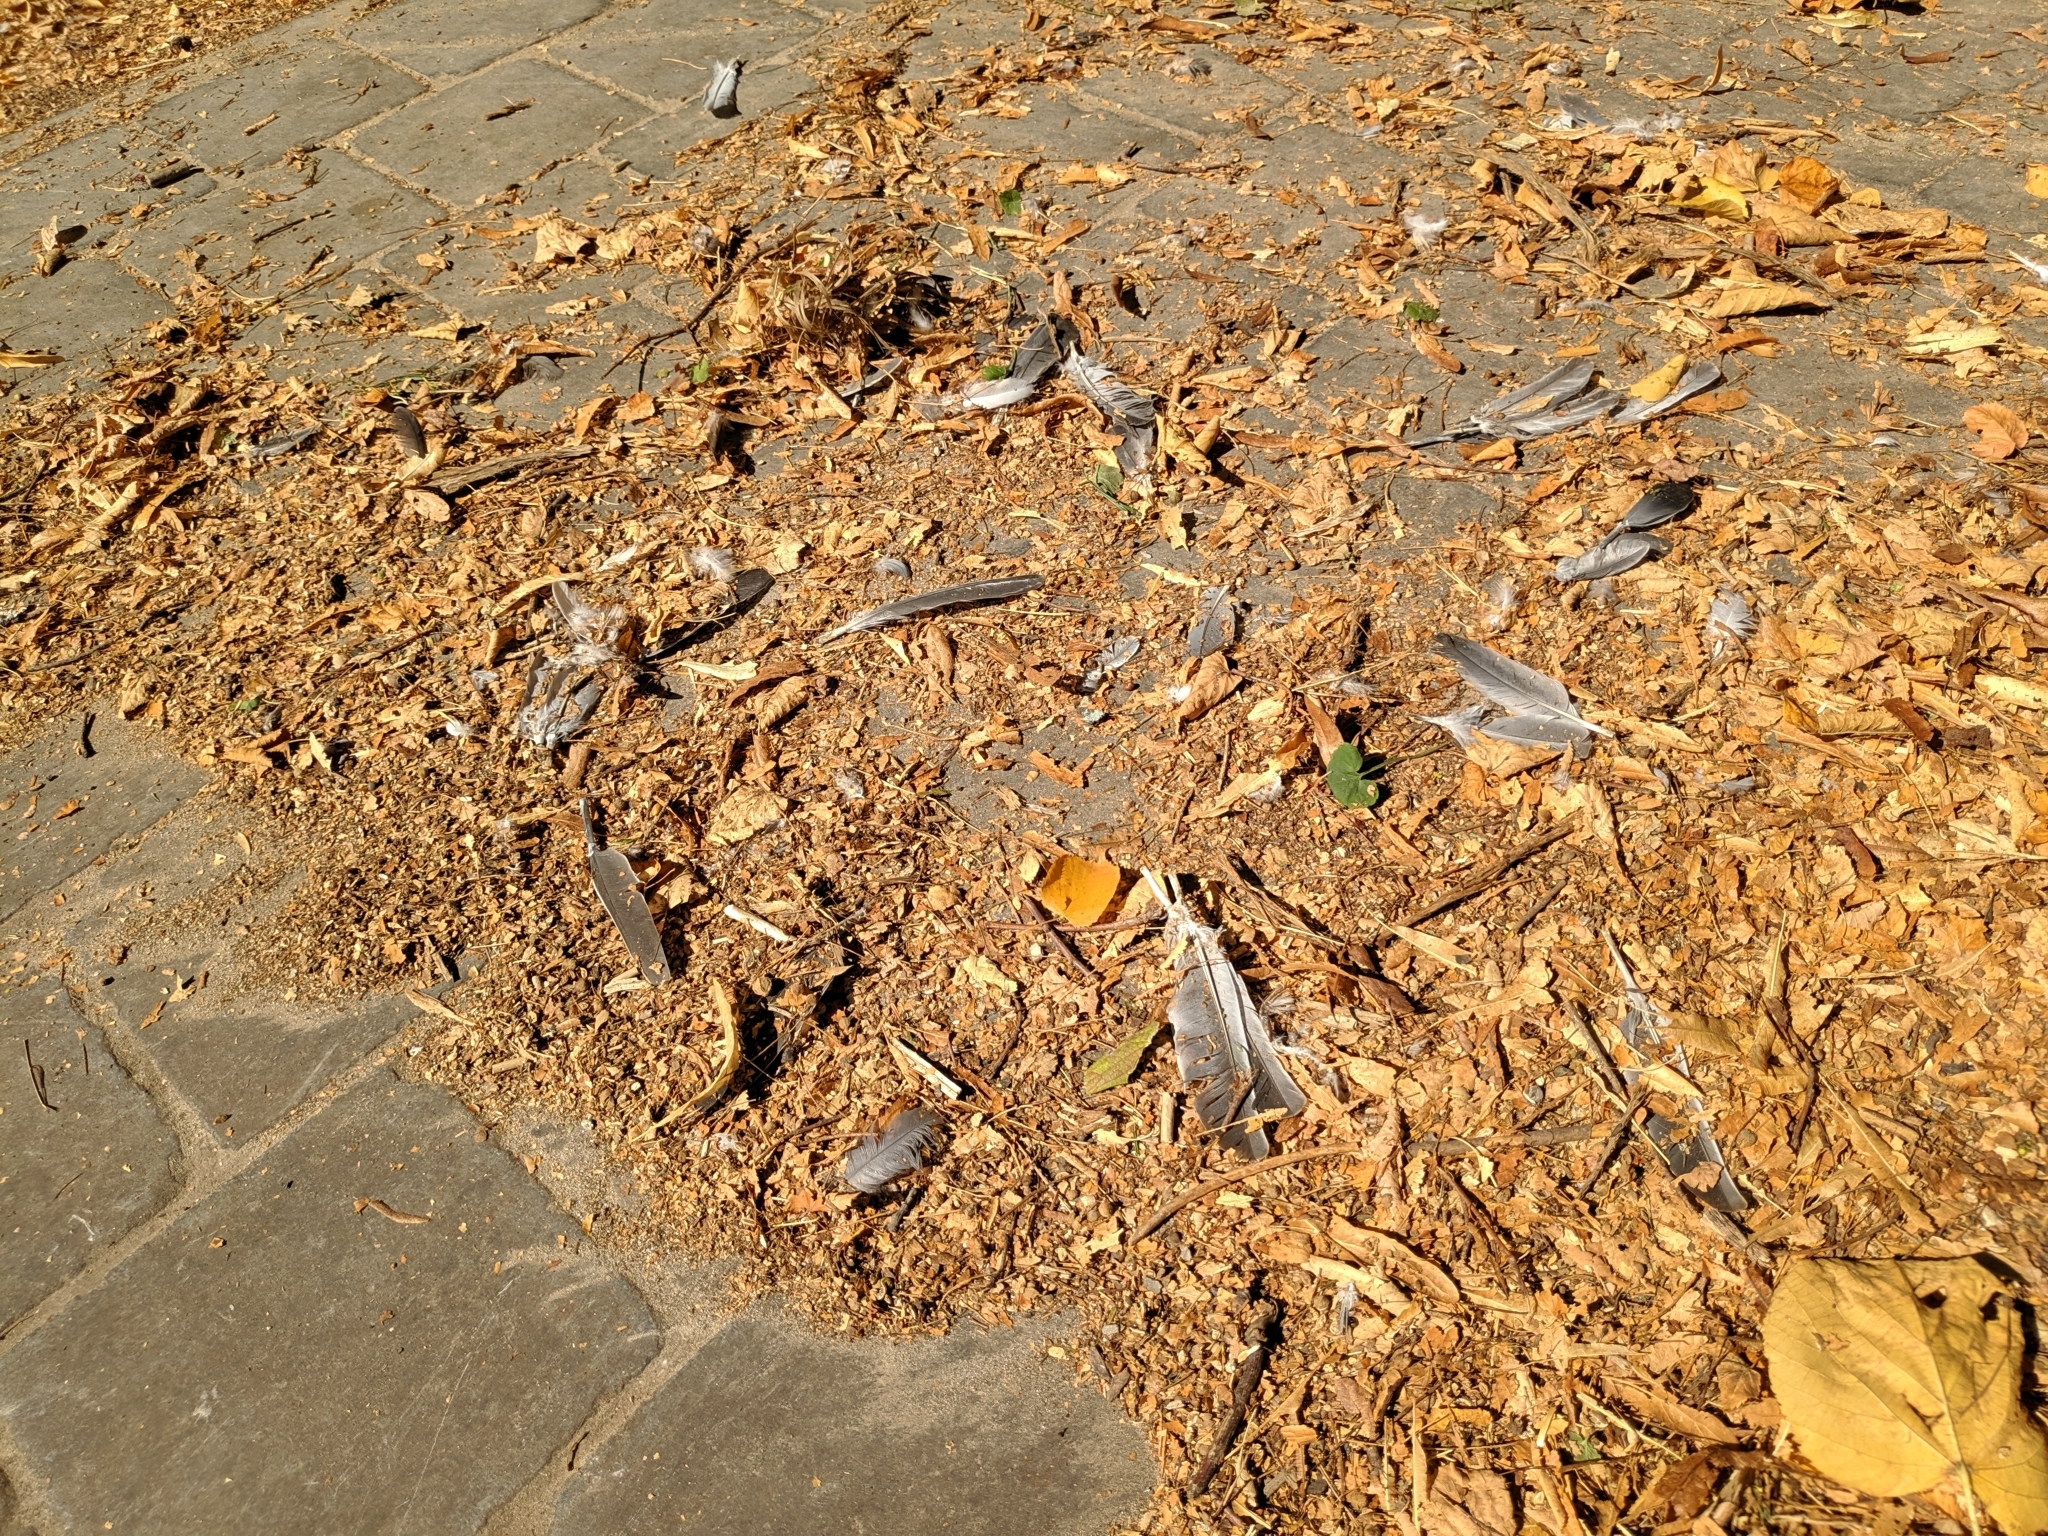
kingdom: Animalia
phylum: Chordata
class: Aves
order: Columbiformes
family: Columbidae
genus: Columba
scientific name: Columba palumbus
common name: Common wood pigeon
